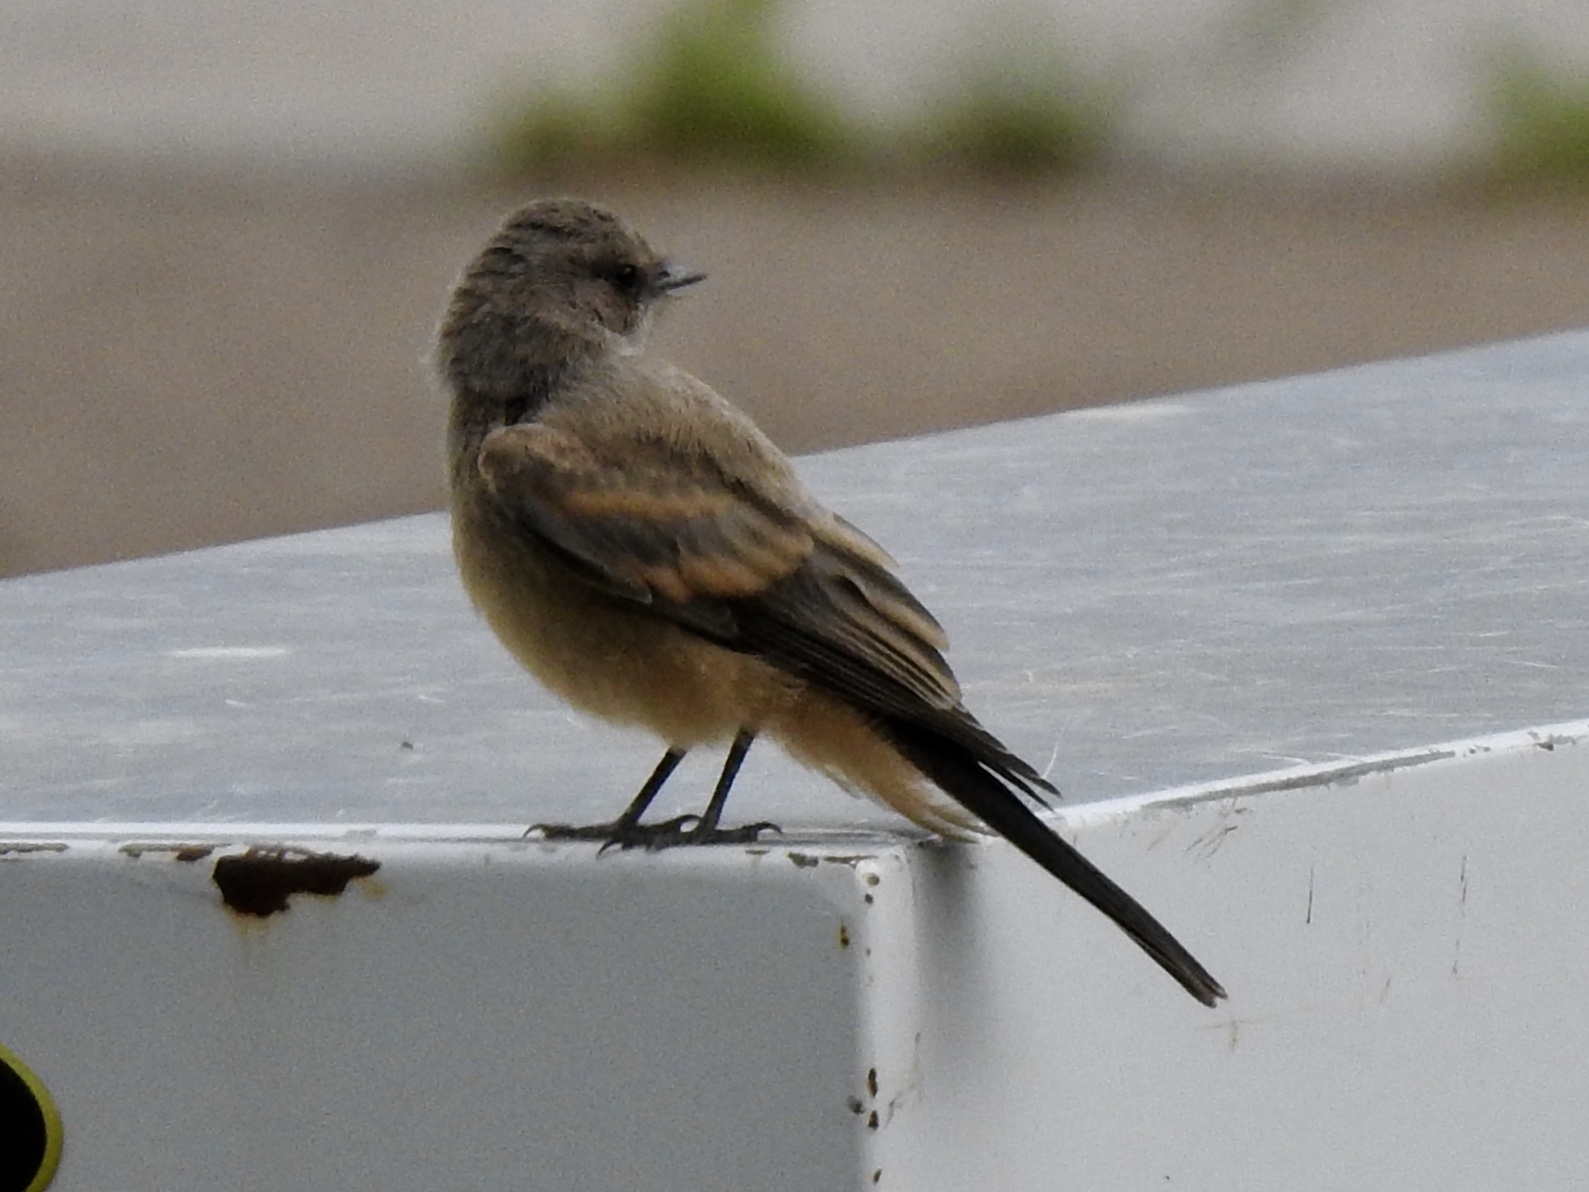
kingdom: Animalia
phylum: Chordata
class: Aves
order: Passeriformes
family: Tyrannidae
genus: Sayornis
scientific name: Sayornis saya
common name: Say's phoebe
